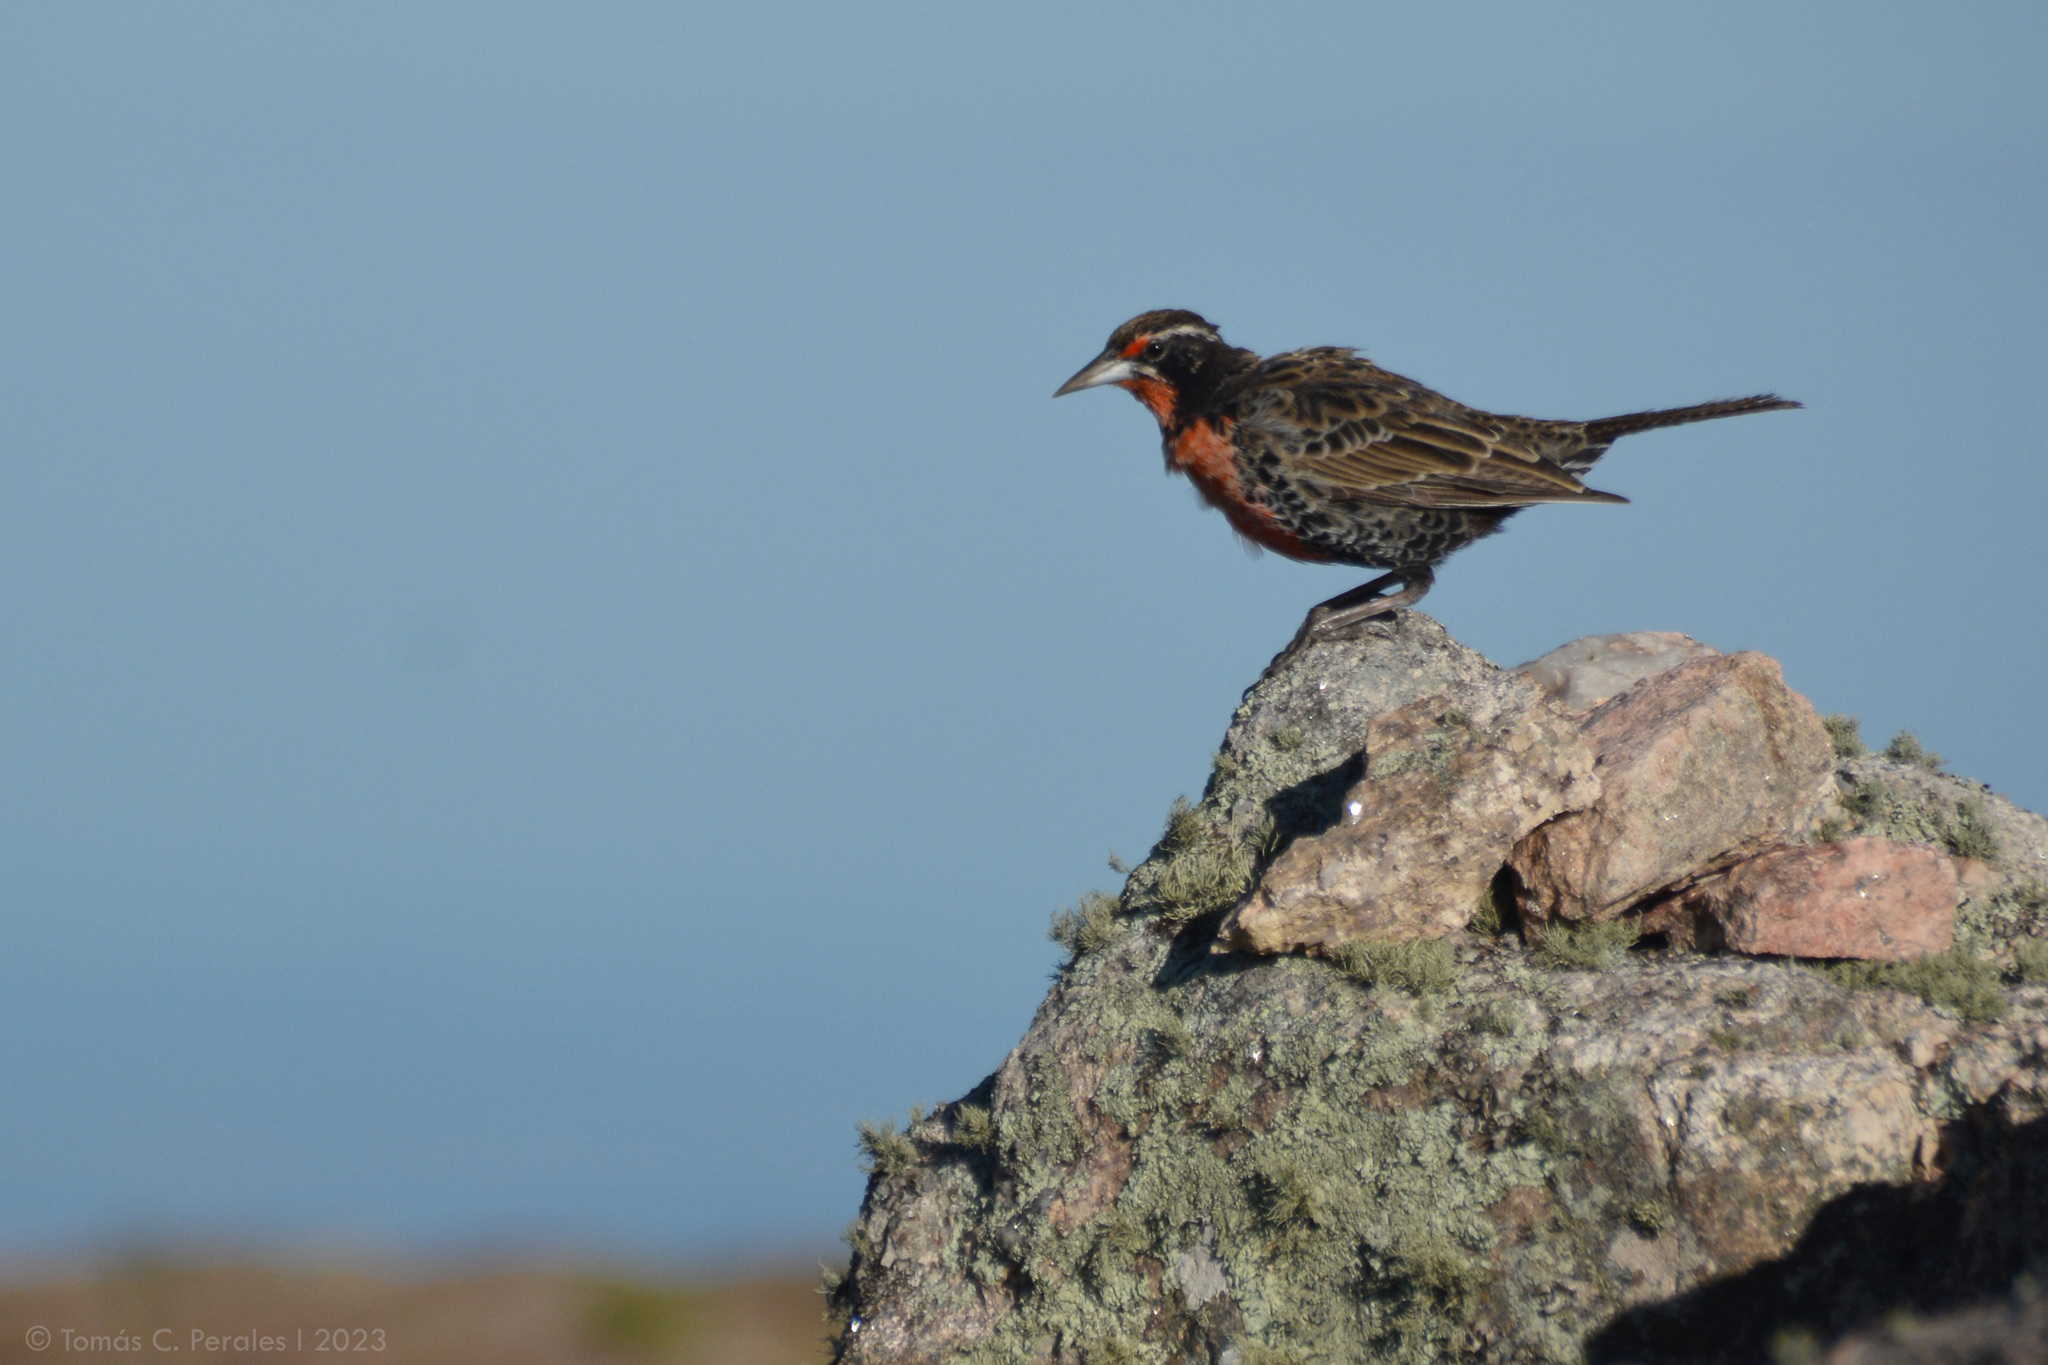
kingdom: Animalia
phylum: Chordata
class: Aves
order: Passeriformes
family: Icteridae
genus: Sturnella
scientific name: Sturnella loyca
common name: Long-tailed meadowlark
